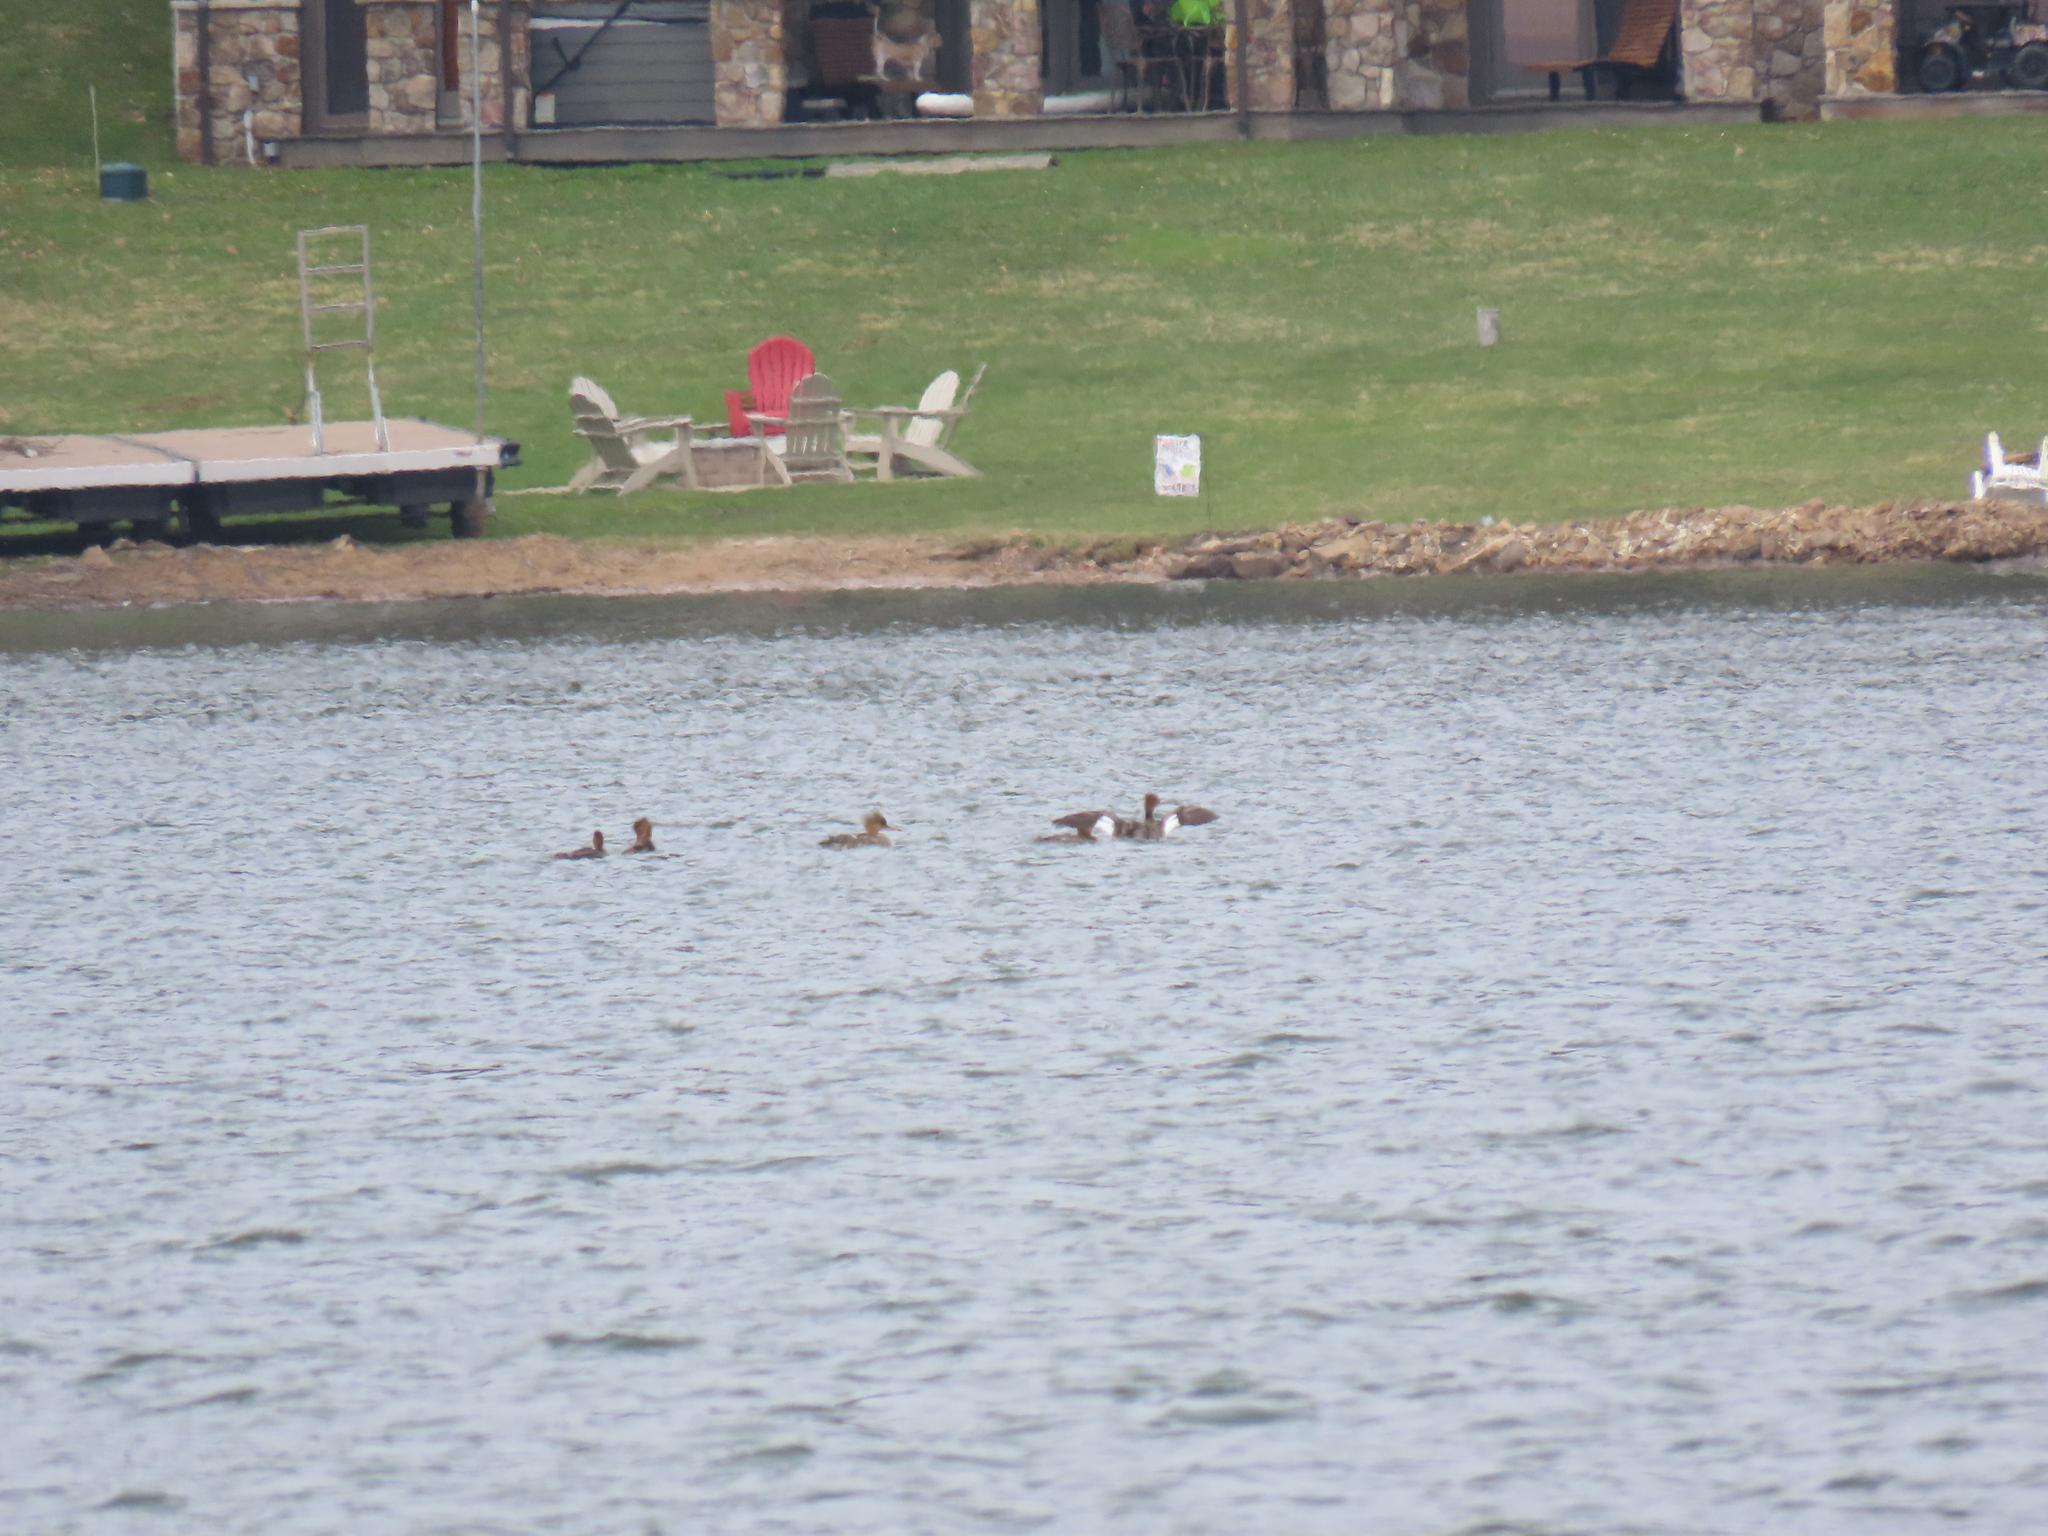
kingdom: Animalia
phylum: Chordata
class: Aves
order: Anseriformes
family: Anatidae
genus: Mergus
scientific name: Mergus serrator
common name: Red-breasted merganser
